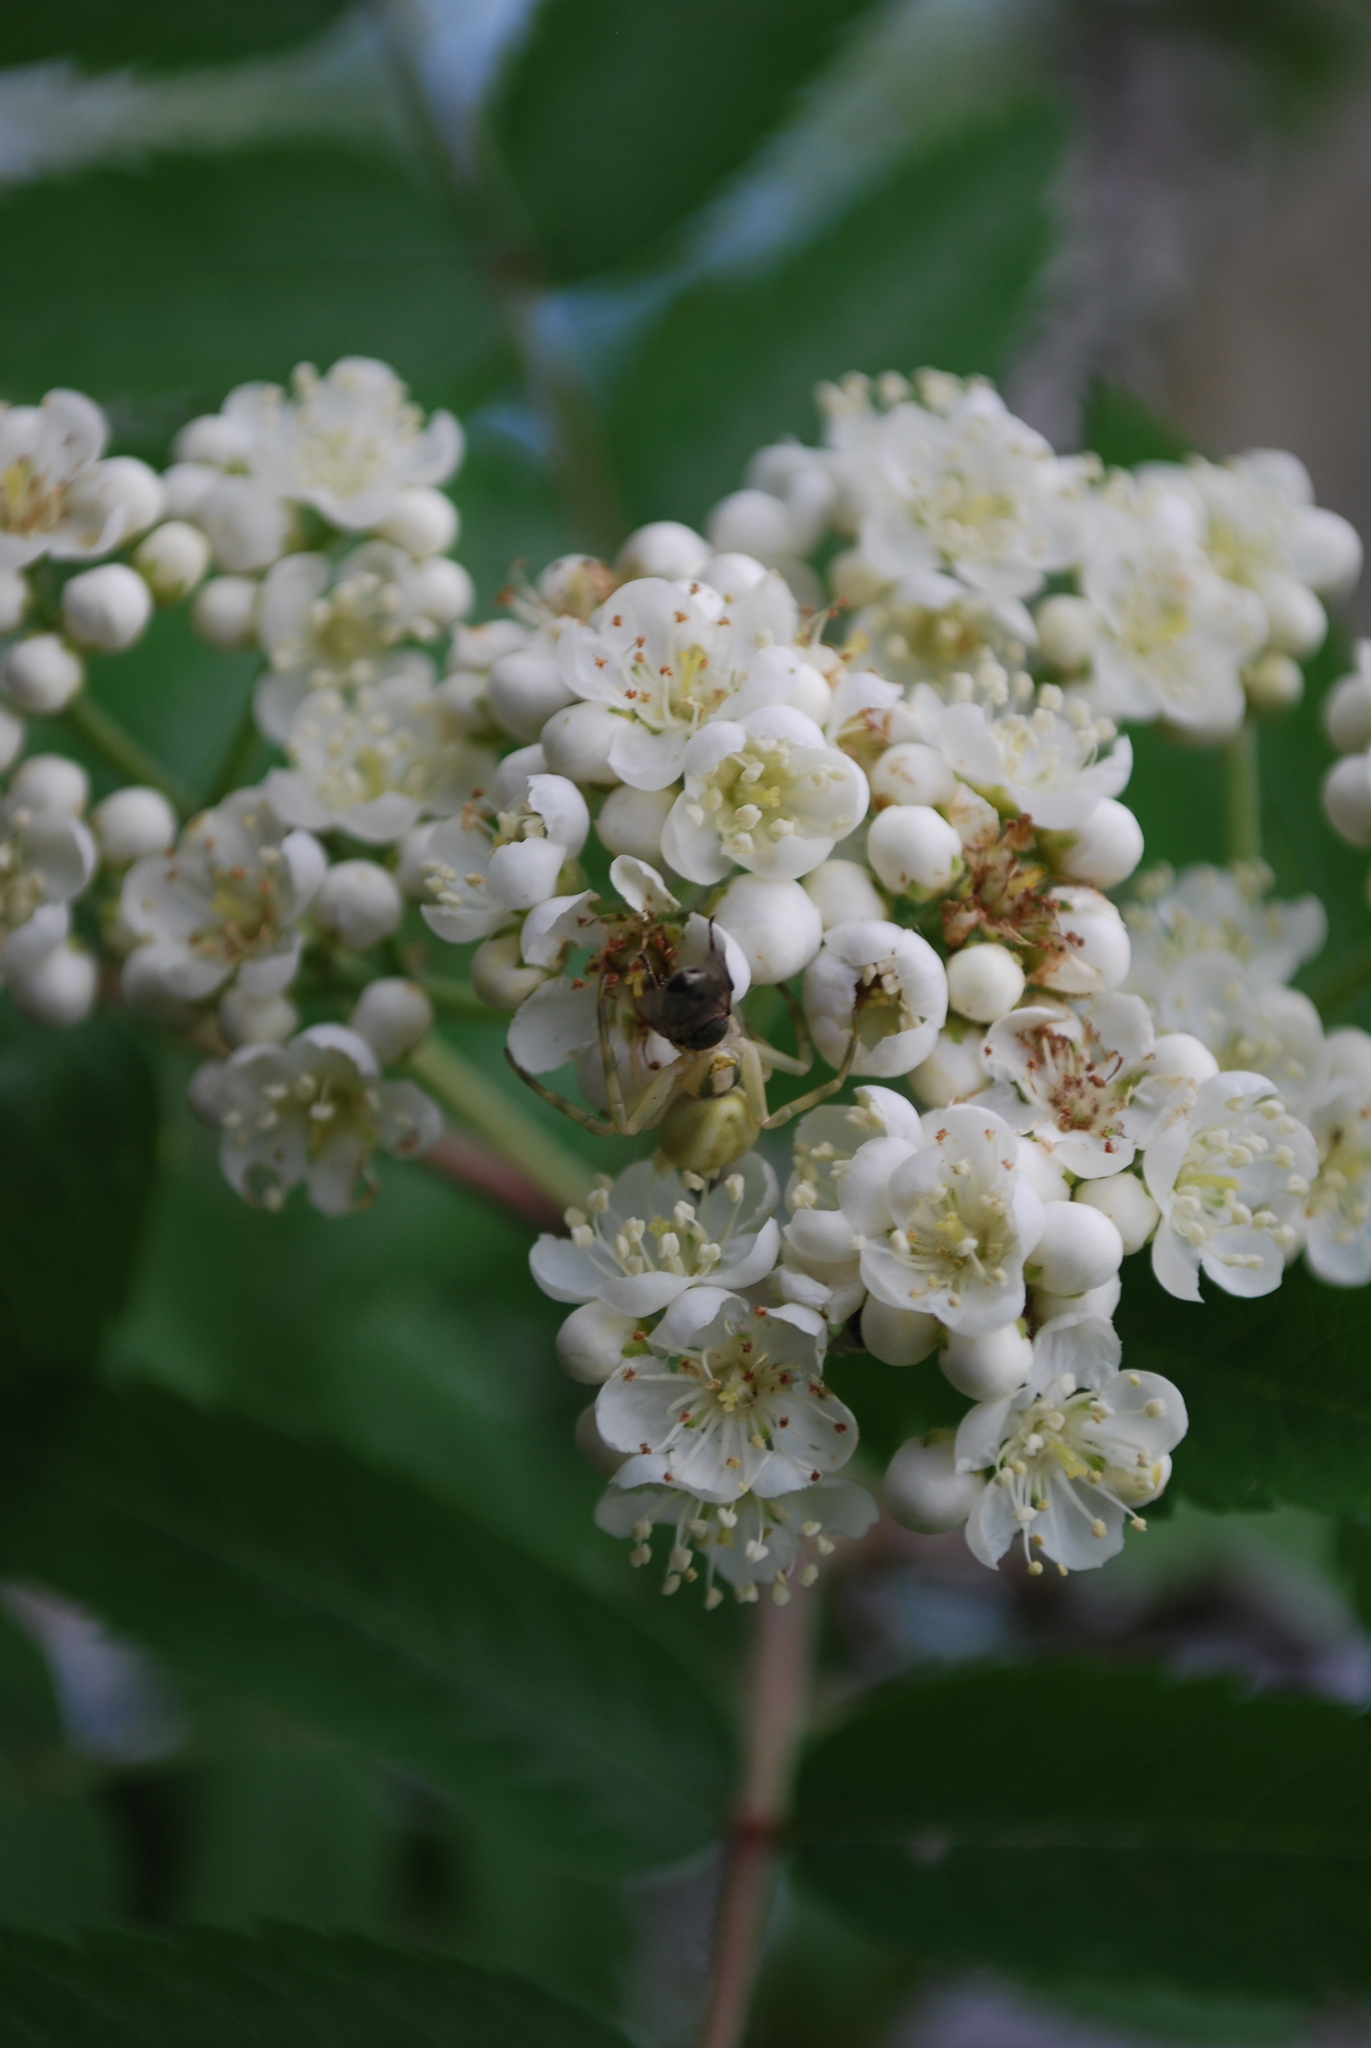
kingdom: Animalia
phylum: Arthropoda
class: Arachnida
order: Araneae
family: Thomisidae
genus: Misumena
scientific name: Misumena vatia
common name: Goldenrod crab spider
